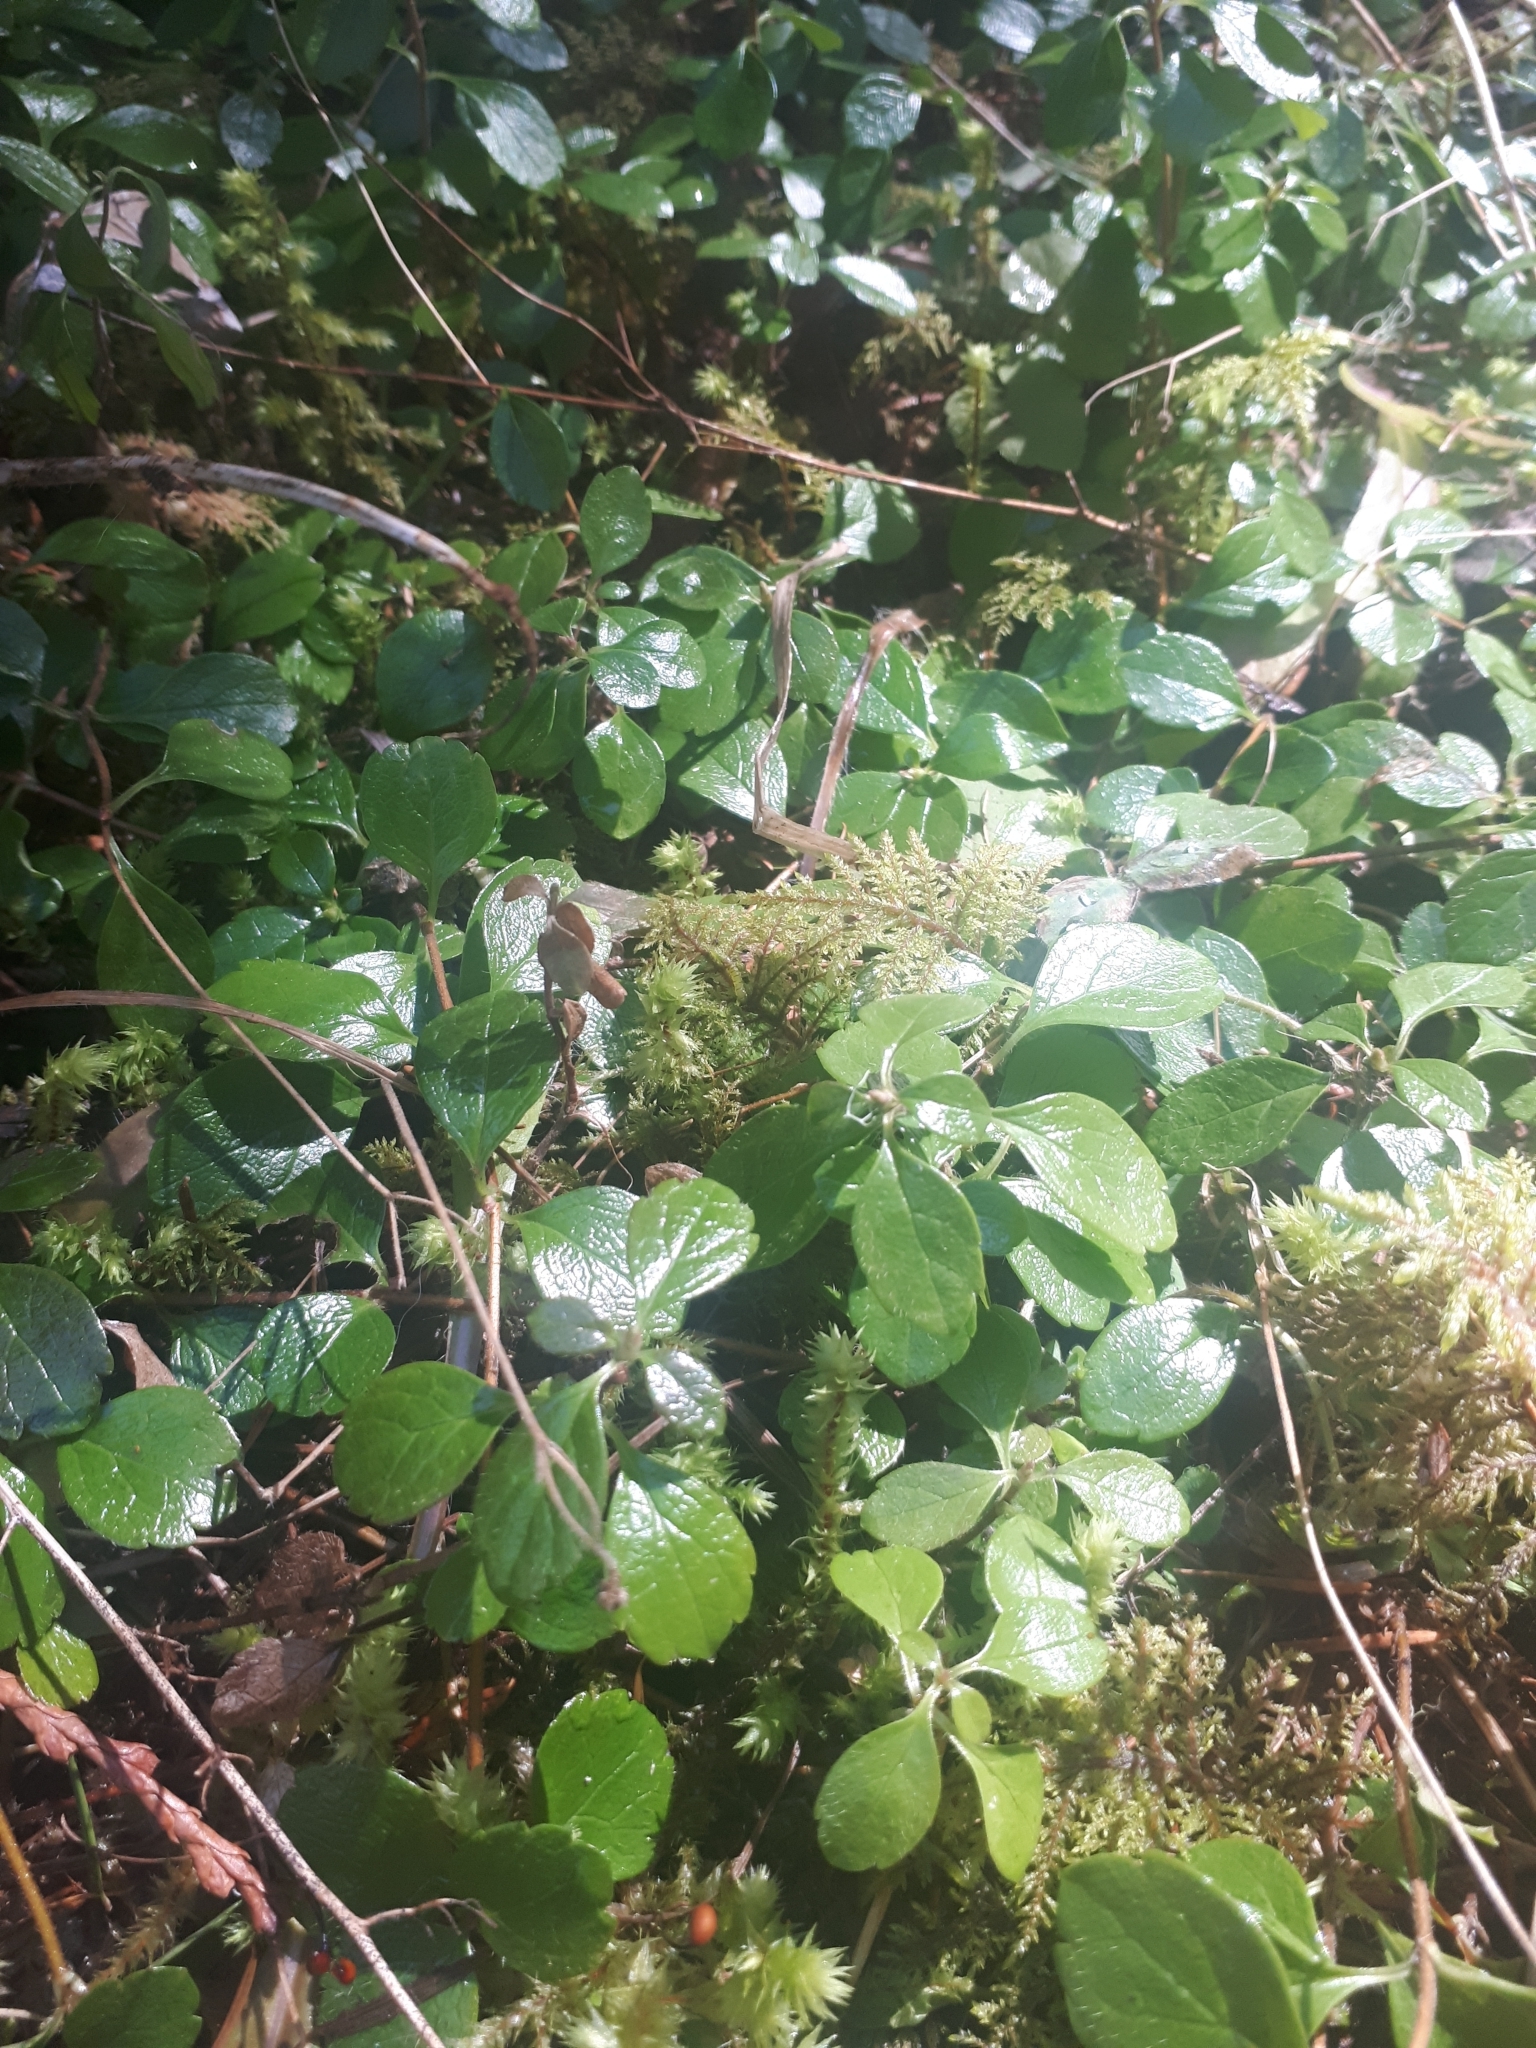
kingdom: Plantae
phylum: Tracheophyta
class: Magnoliopsida
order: Dipsacales
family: Caprifoliaceae
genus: Linnaea
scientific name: Linnaea borealis
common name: Twinflower
